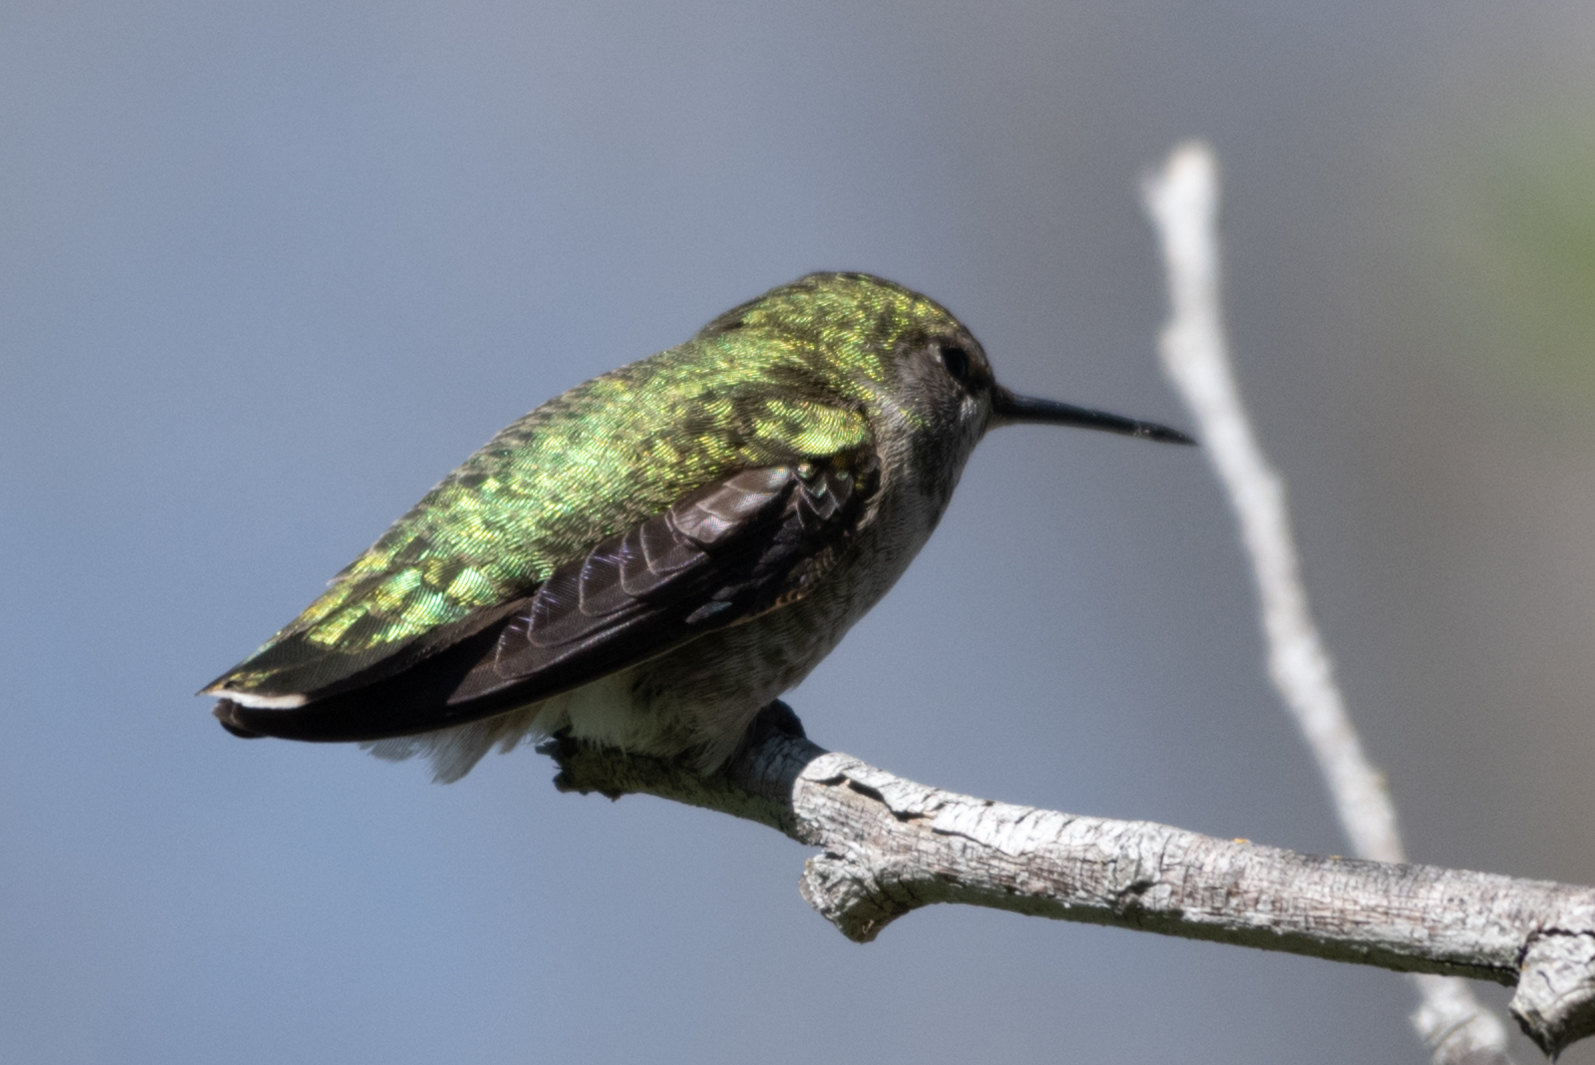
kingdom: Animalia
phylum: Chordata
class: Aves
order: Apodiformes
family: Trochilidae
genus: Calypte
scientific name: Calypte anna
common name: Anna's hummingbird
